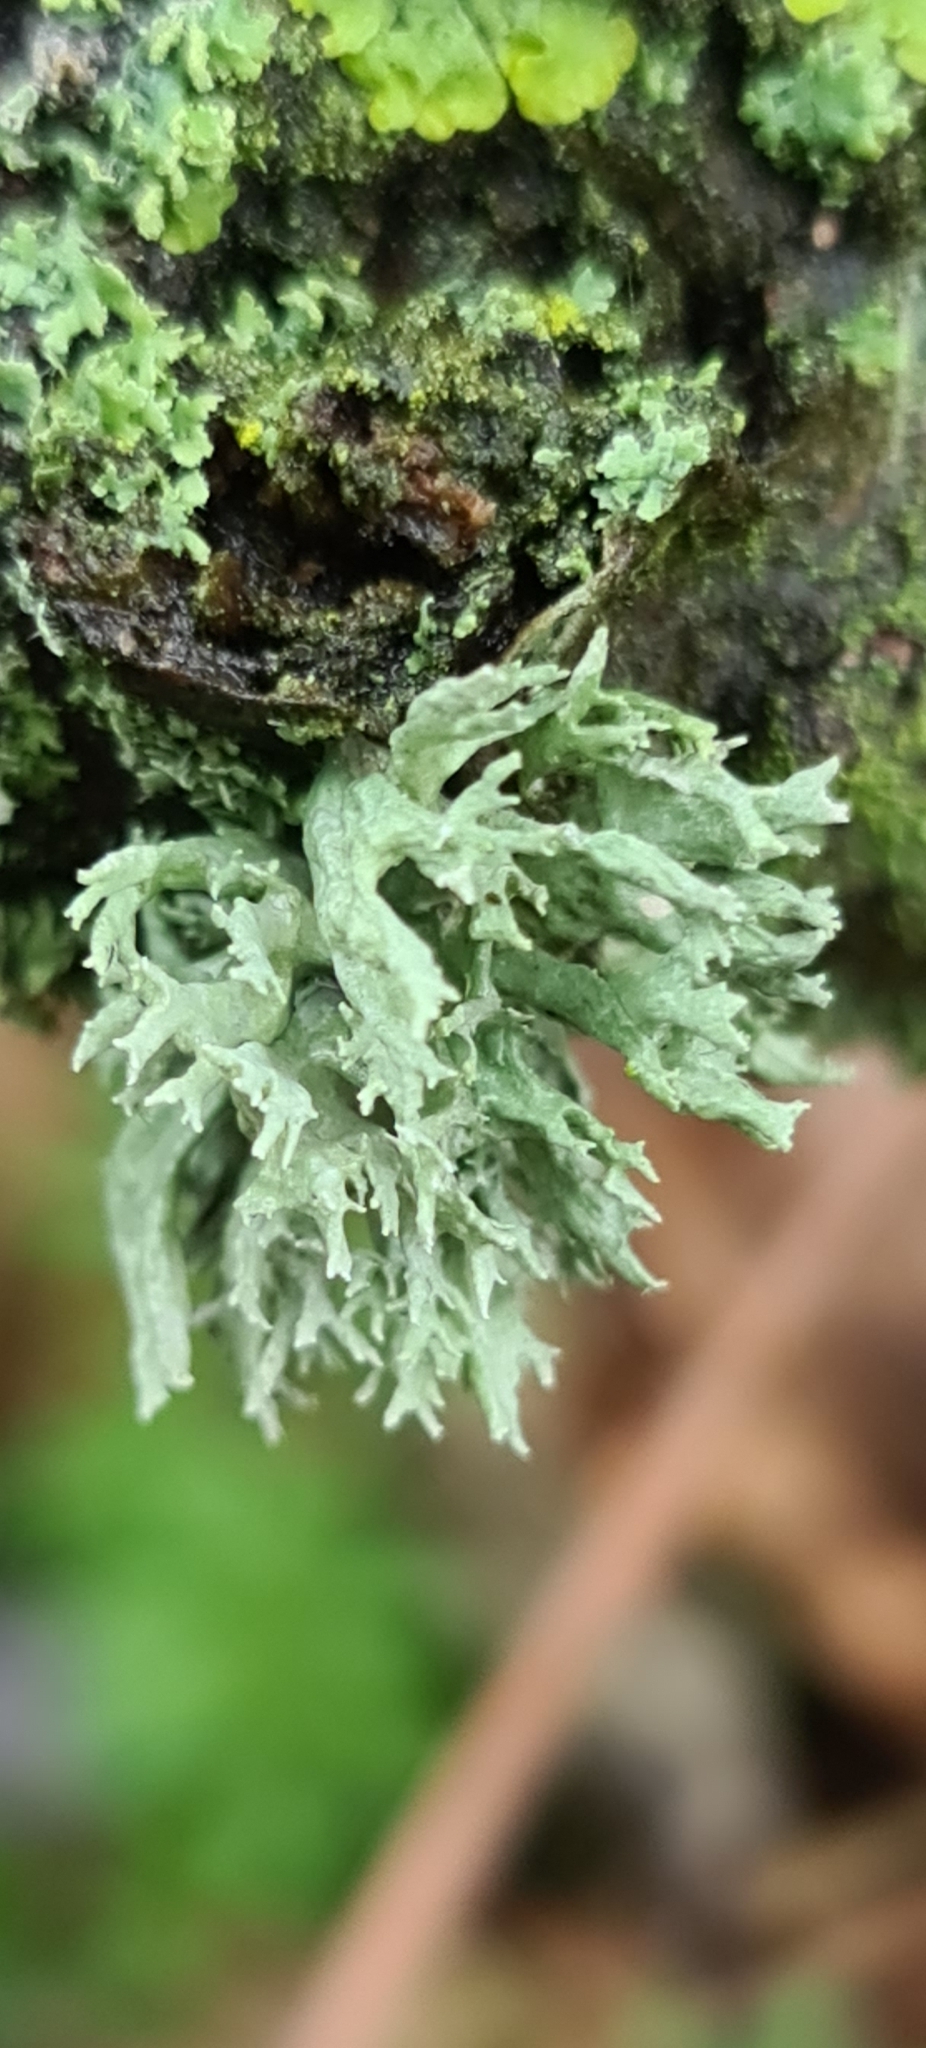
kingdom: Fungi
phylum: Ascomycota
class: Lecanoromycetes
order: Lecanorales
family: Parmeliaceae
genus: Evernia
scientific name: Evernia prunastri
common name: Oak moss
